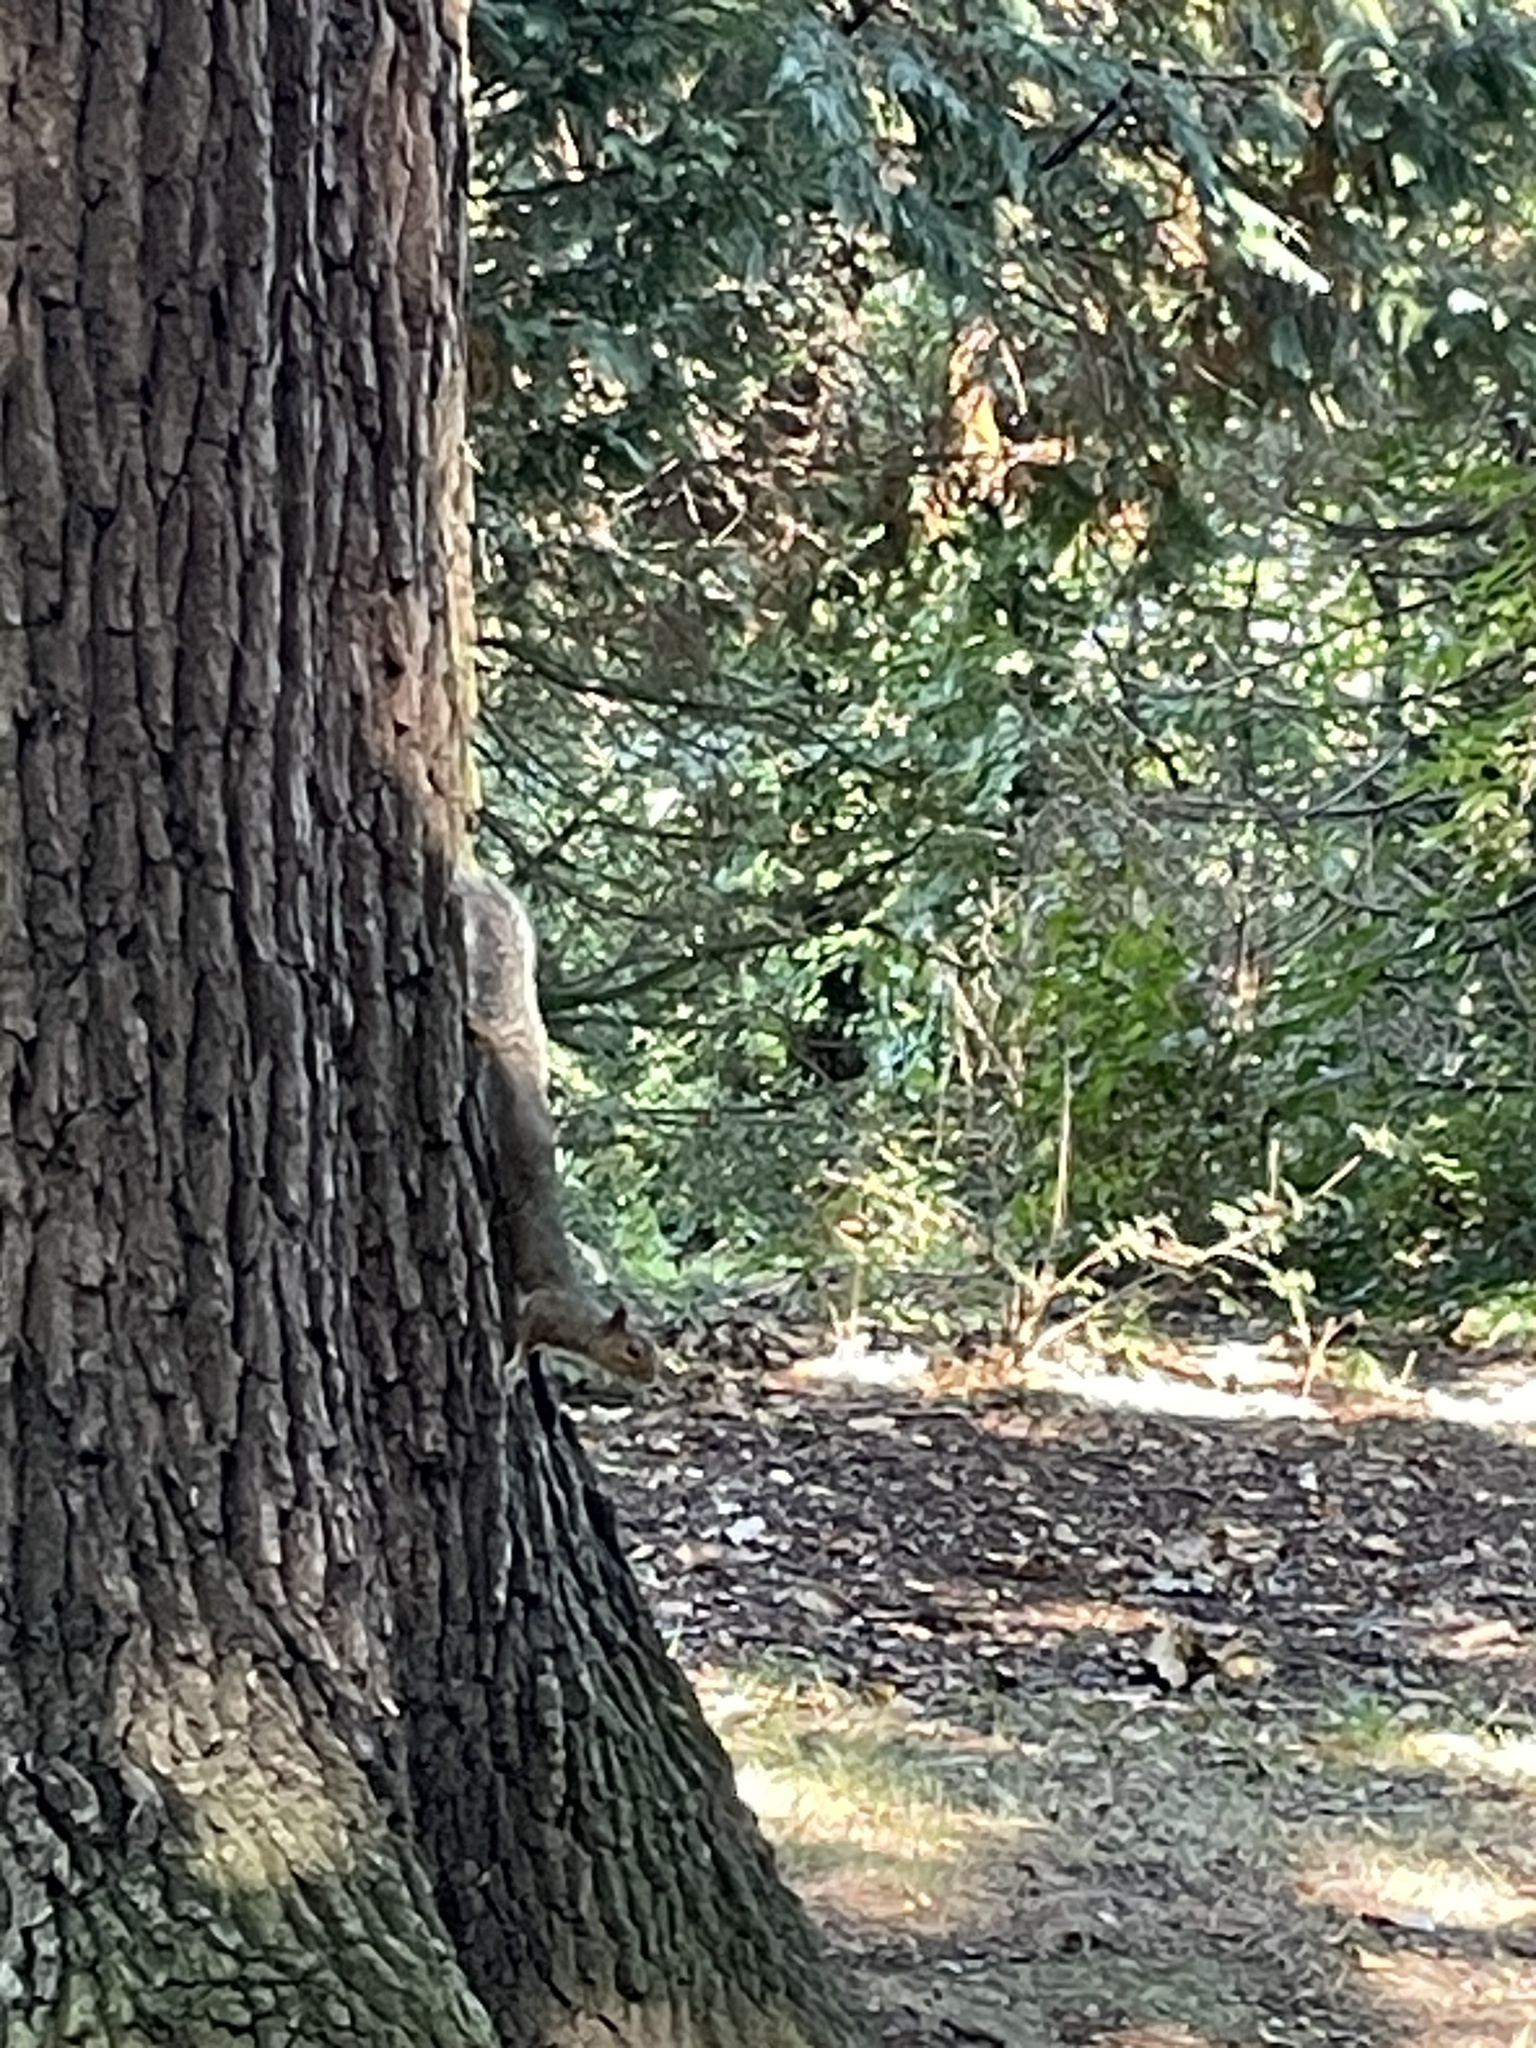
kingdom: Animalia
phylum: Chordata
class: Mammalia
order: Rodentia
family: Sciuridae
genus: Sciurus
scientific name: Sciurus carolinensis
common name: Eastern gray squirrel
